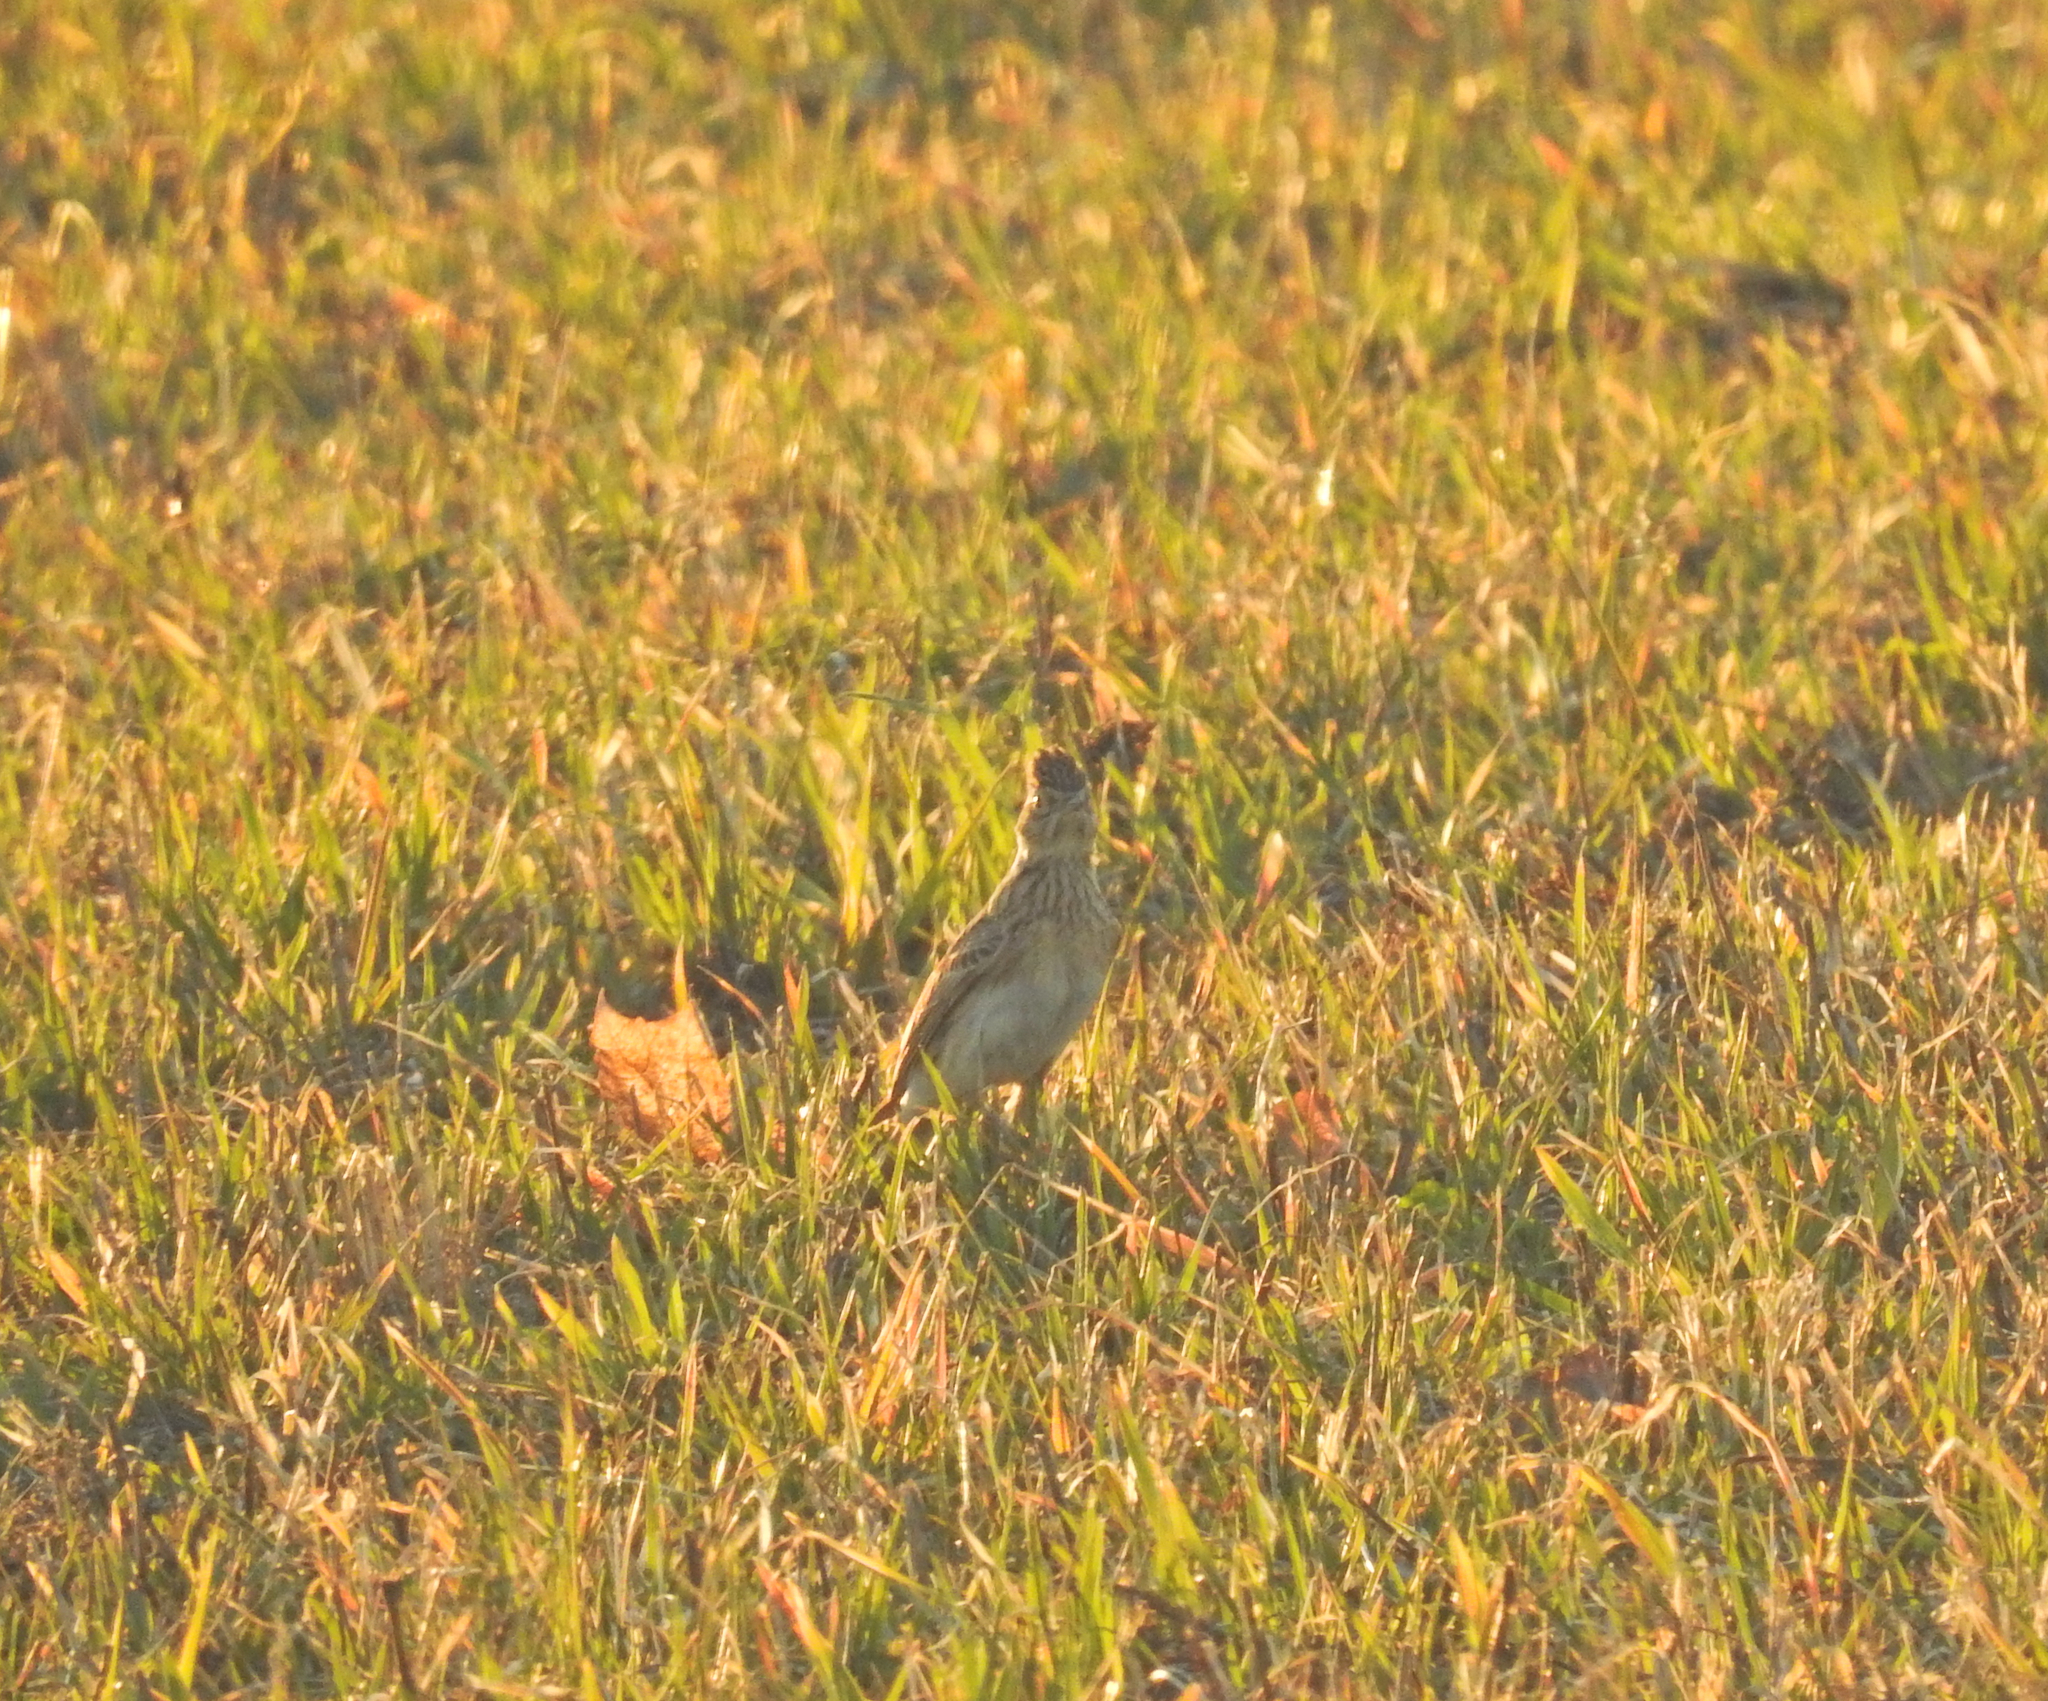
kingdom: Animalia
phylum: Chordata
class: Aves
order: Passeriformes
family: Alaudidae
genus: Alauda
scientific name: Alauda arvensis
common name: Eurasian skylark
